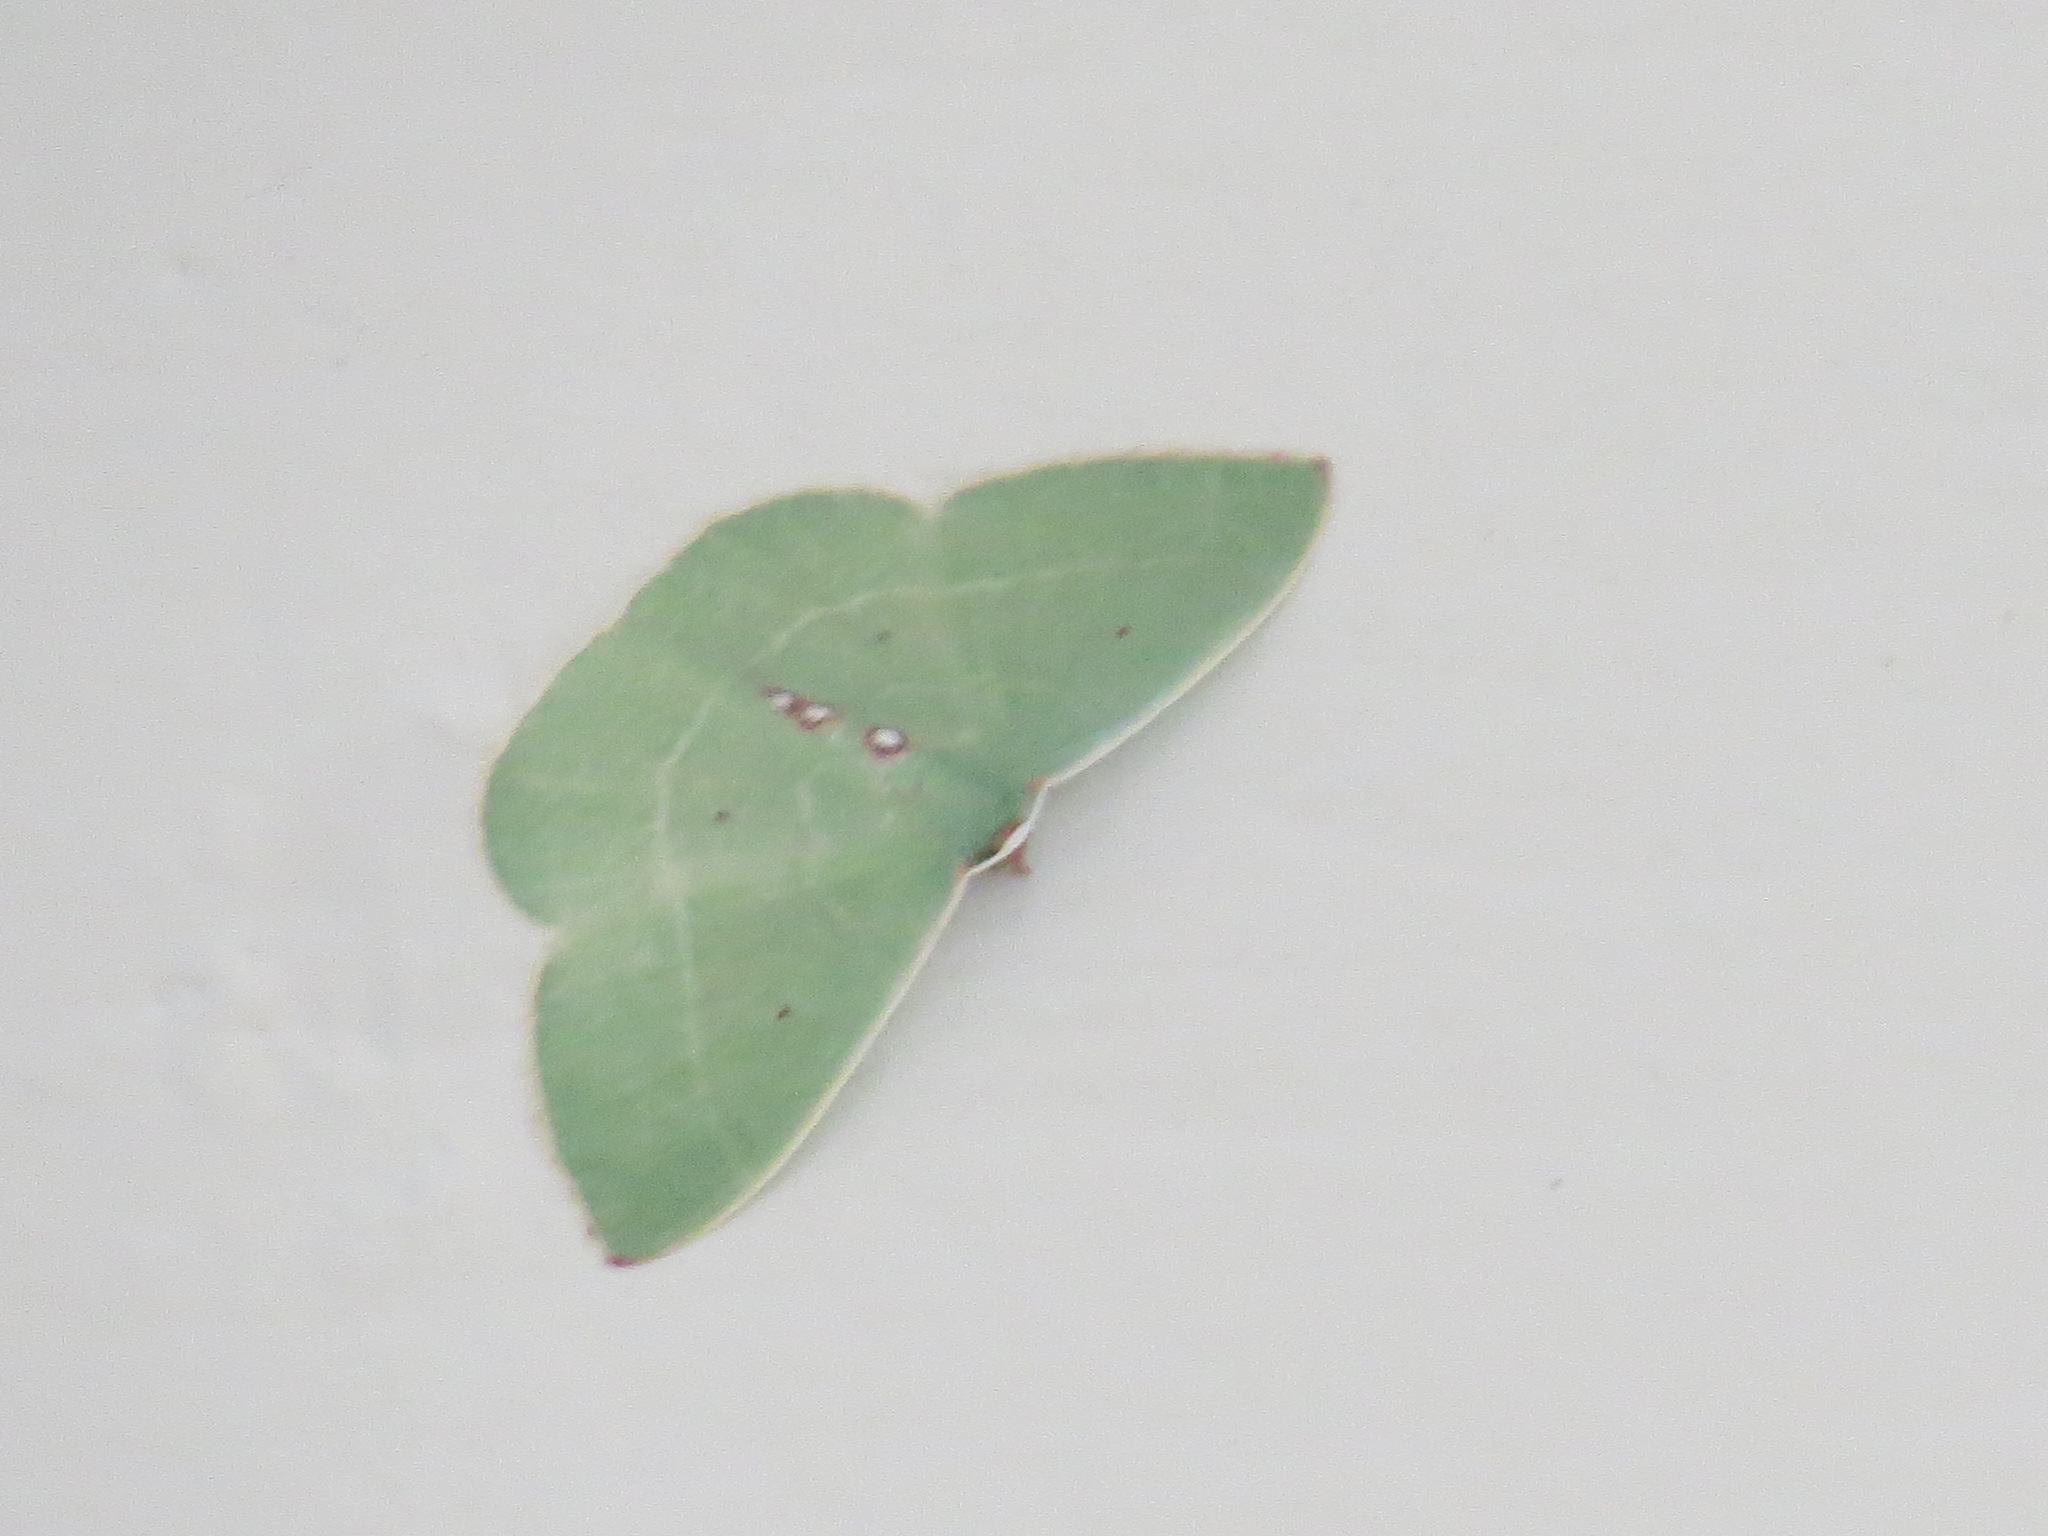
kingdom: Animalia
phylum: Arthropoda
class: Insecta
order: Lepidoptera
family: Geometridae
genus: Nemoria
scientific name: Nemoria darwiniata
